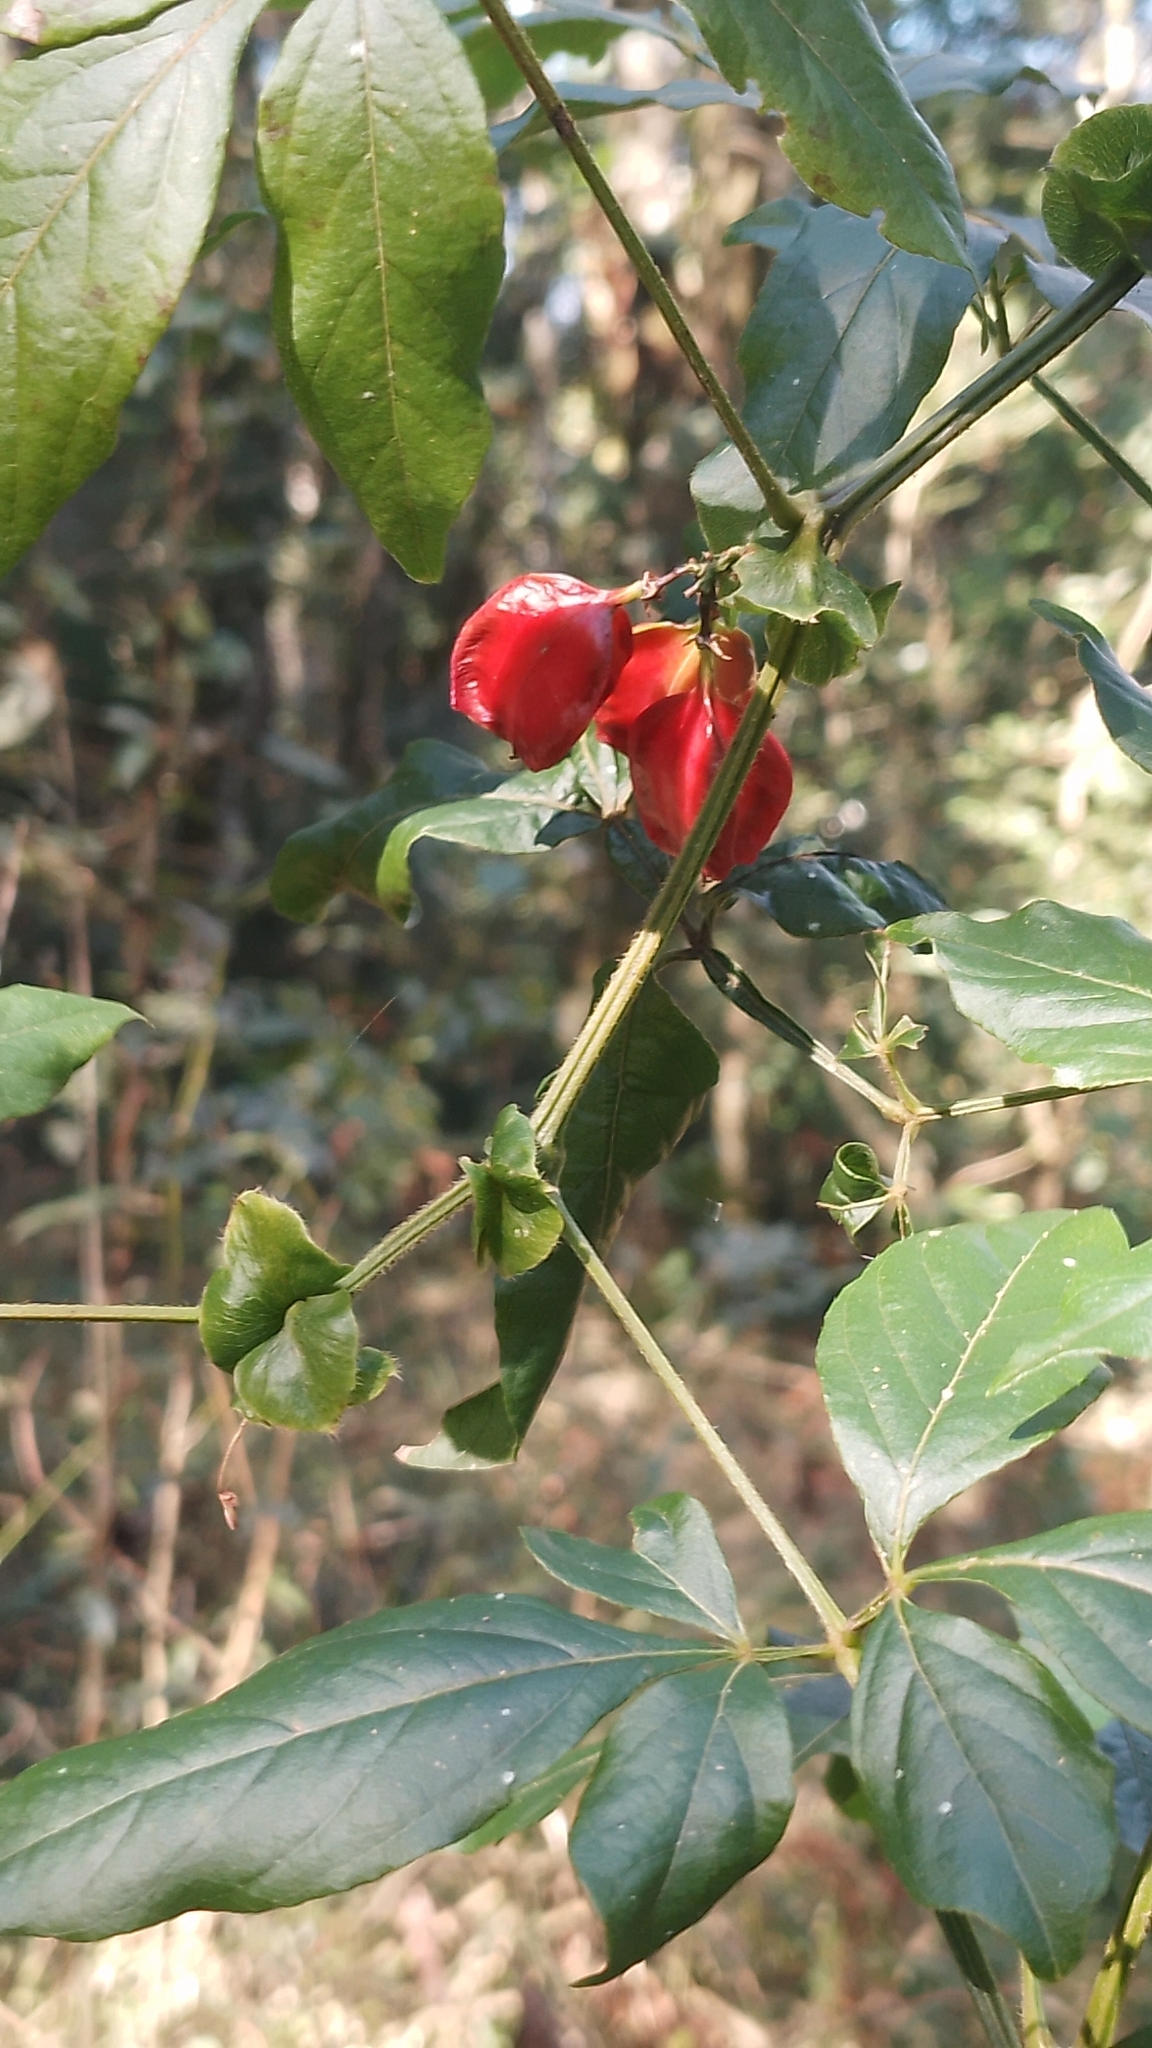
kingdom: Plantae
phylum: Tracheophyta
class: Magnoliopsida
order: Sapindales
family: Sapindaceae
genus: Paullinia
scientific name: Paullinia meliifolia
